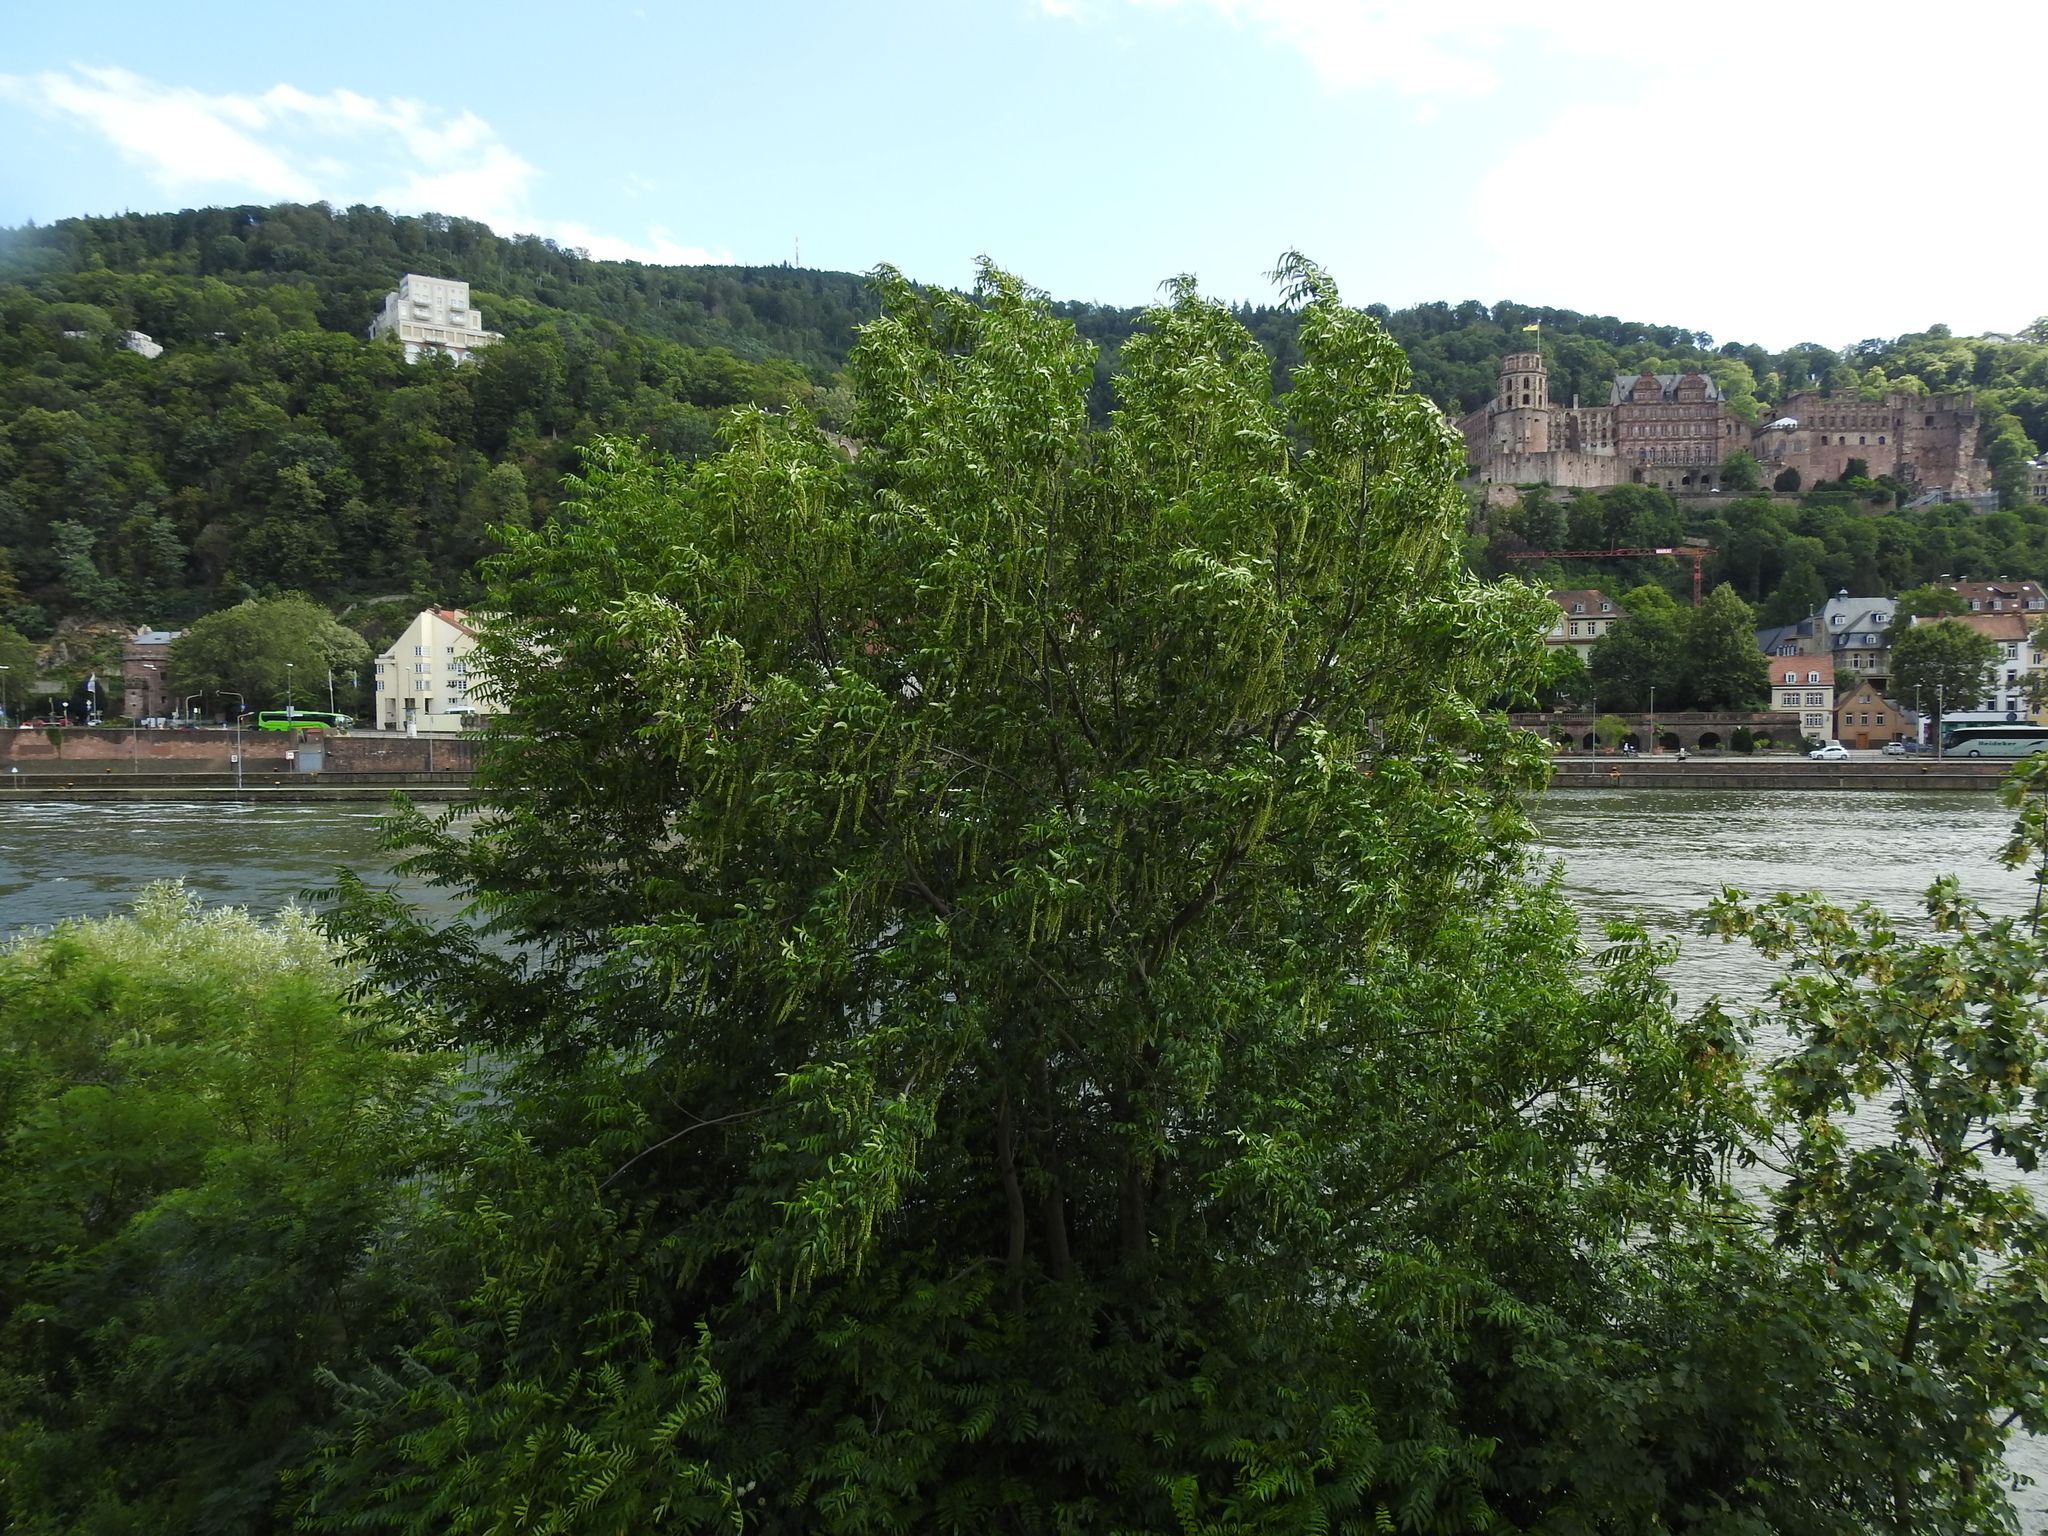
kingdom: Plantae
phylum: Tracheophyta
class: Magnoliopsida
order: Fagales
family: Juglandaceae
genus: Pterocarya
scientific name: Pterocarya fraxinifolia
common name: Caucasian wingnut
